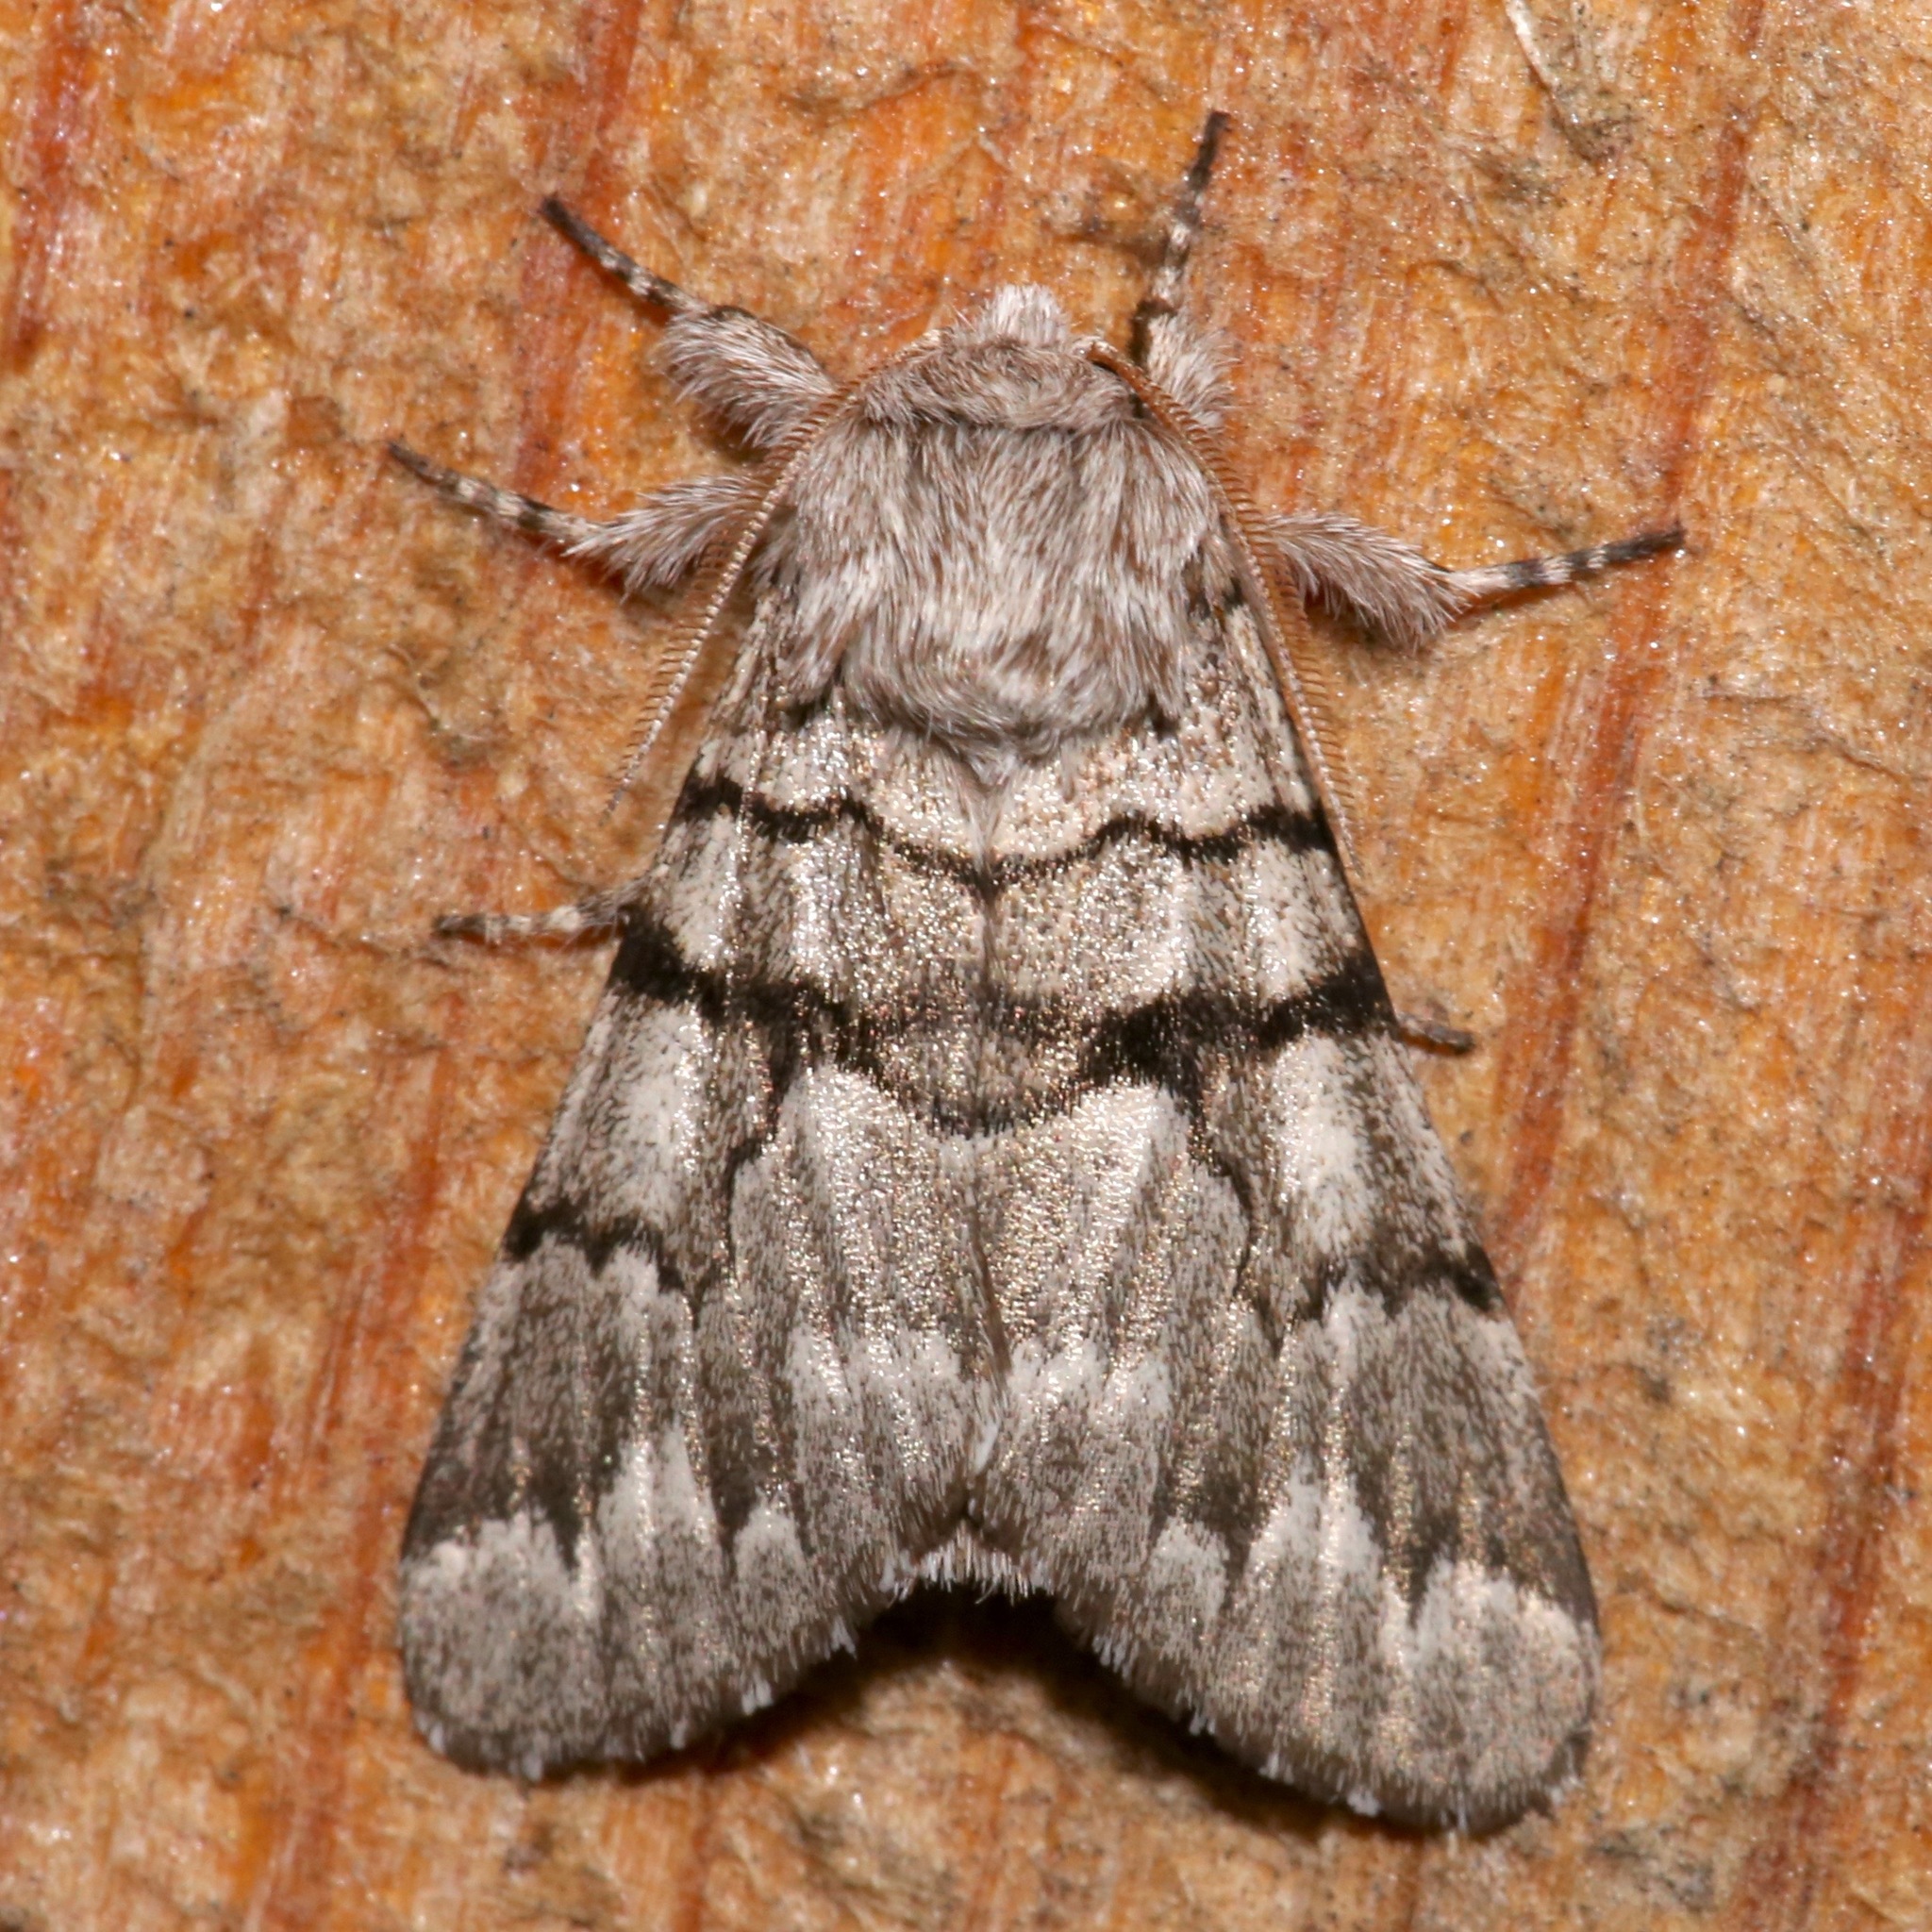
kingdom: Animalia
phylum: Arthropoda
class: Insecta
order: Lepidoptera
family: Noctuidae
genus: Panthea
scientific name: Panthea furcilla
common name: Eastern panthea moth
